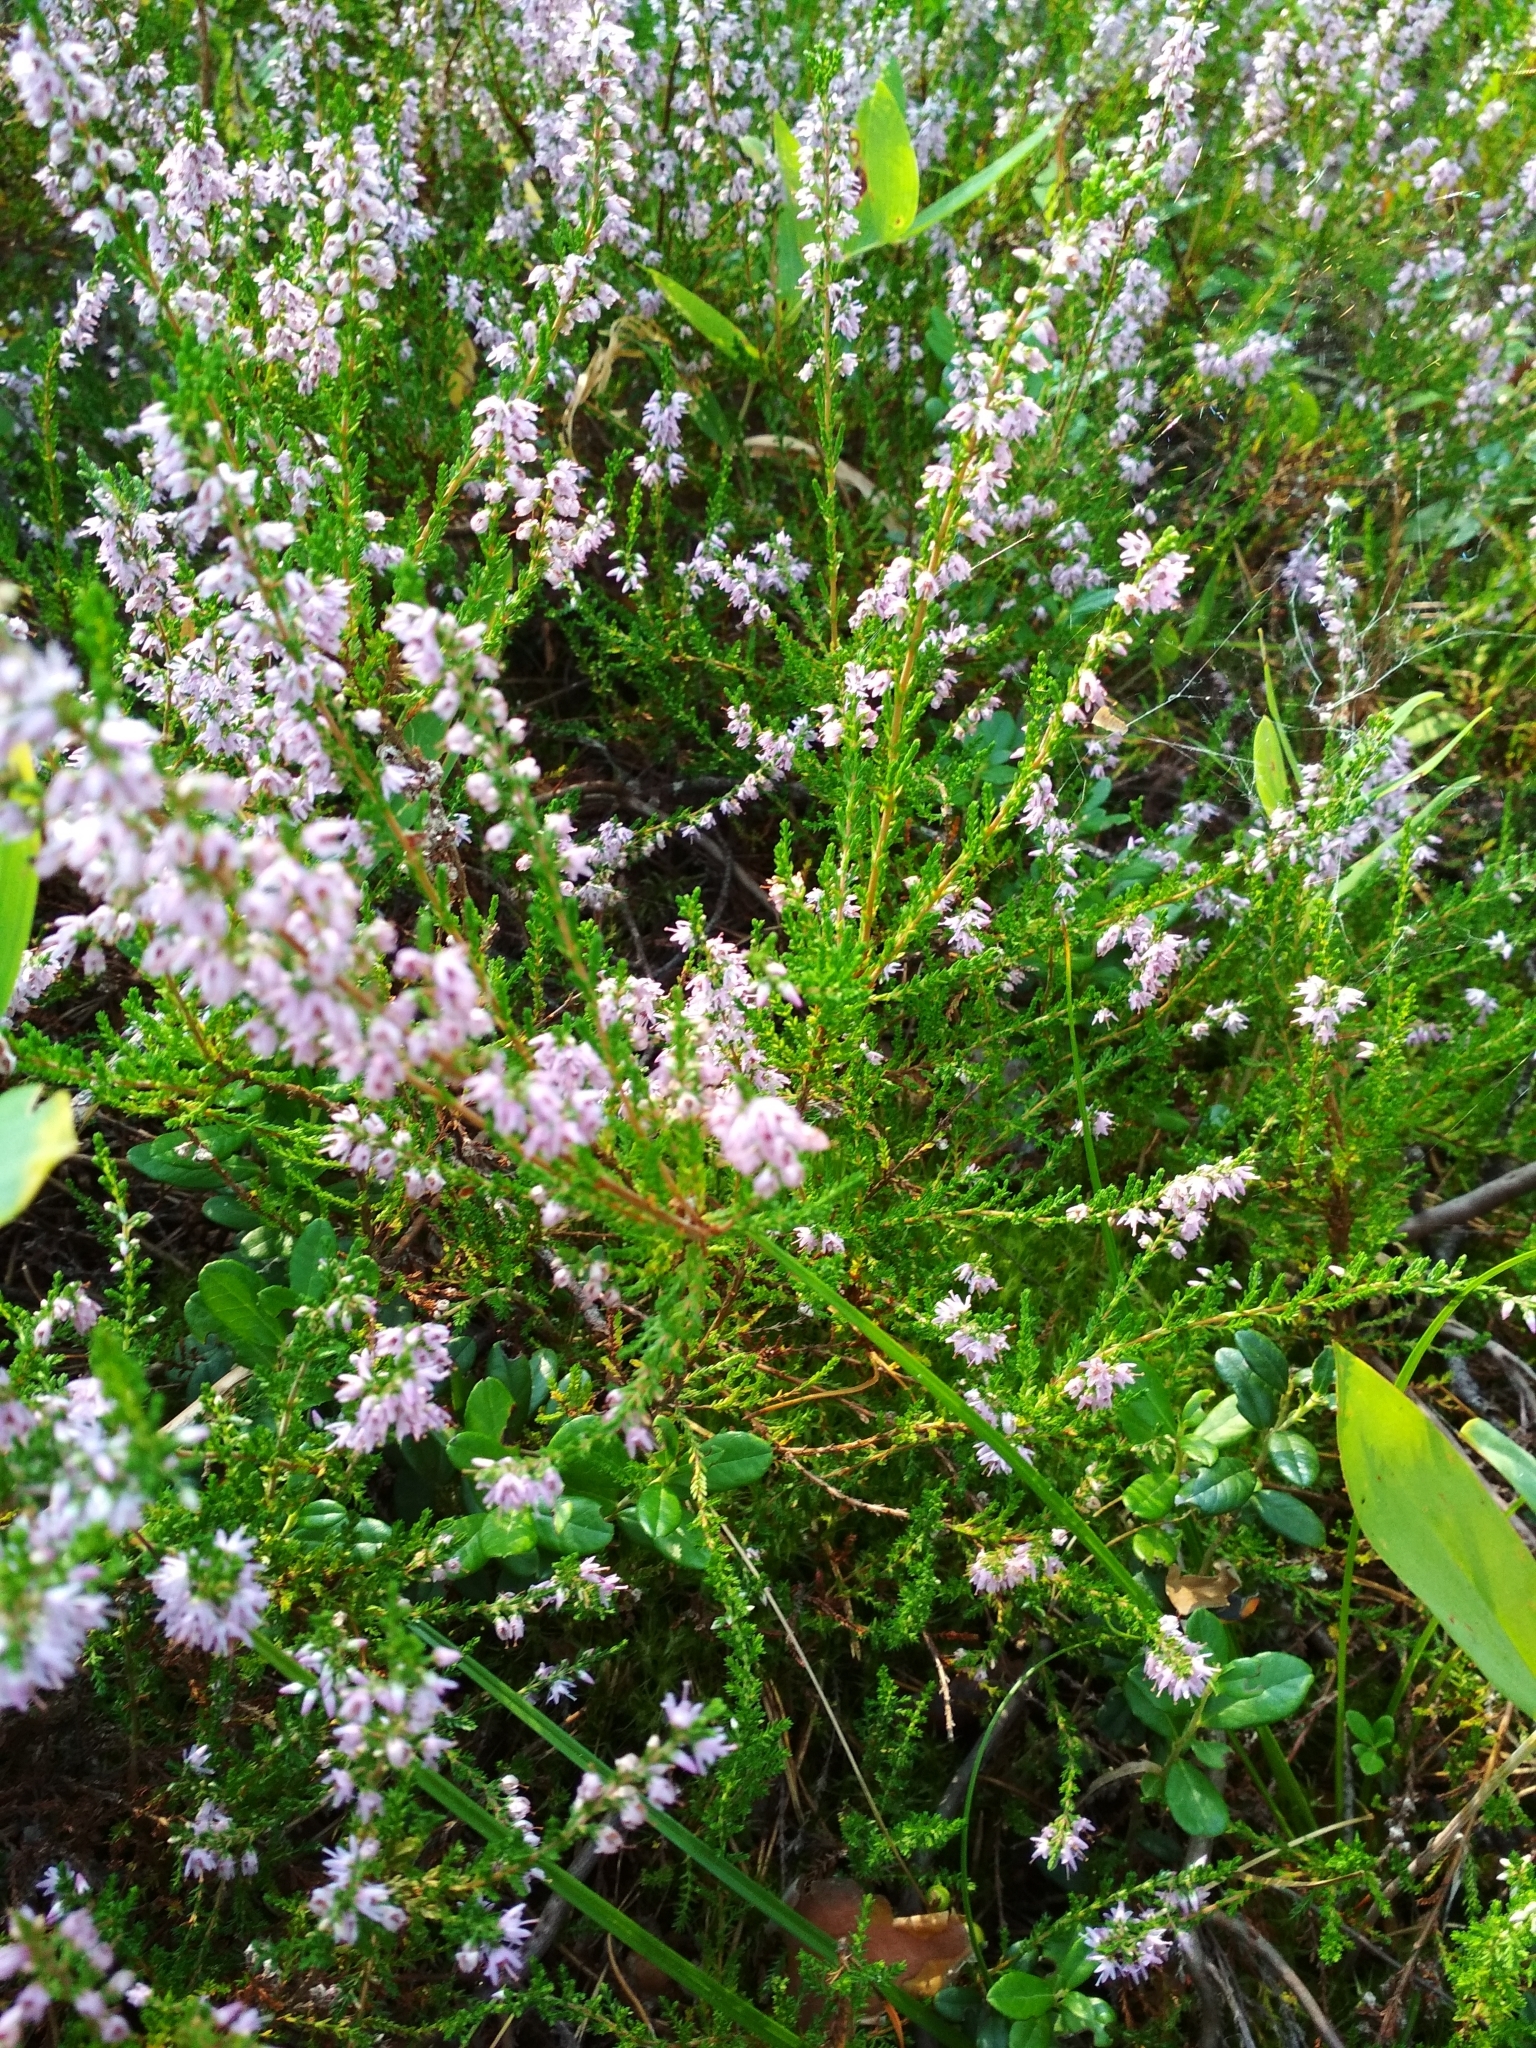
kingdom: Plantae
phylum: Tracheophyta
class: Magnoliopsida
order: Ericales
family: Ericaceae
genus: Calluna
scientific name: Calluna vulgaris
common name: Heather
